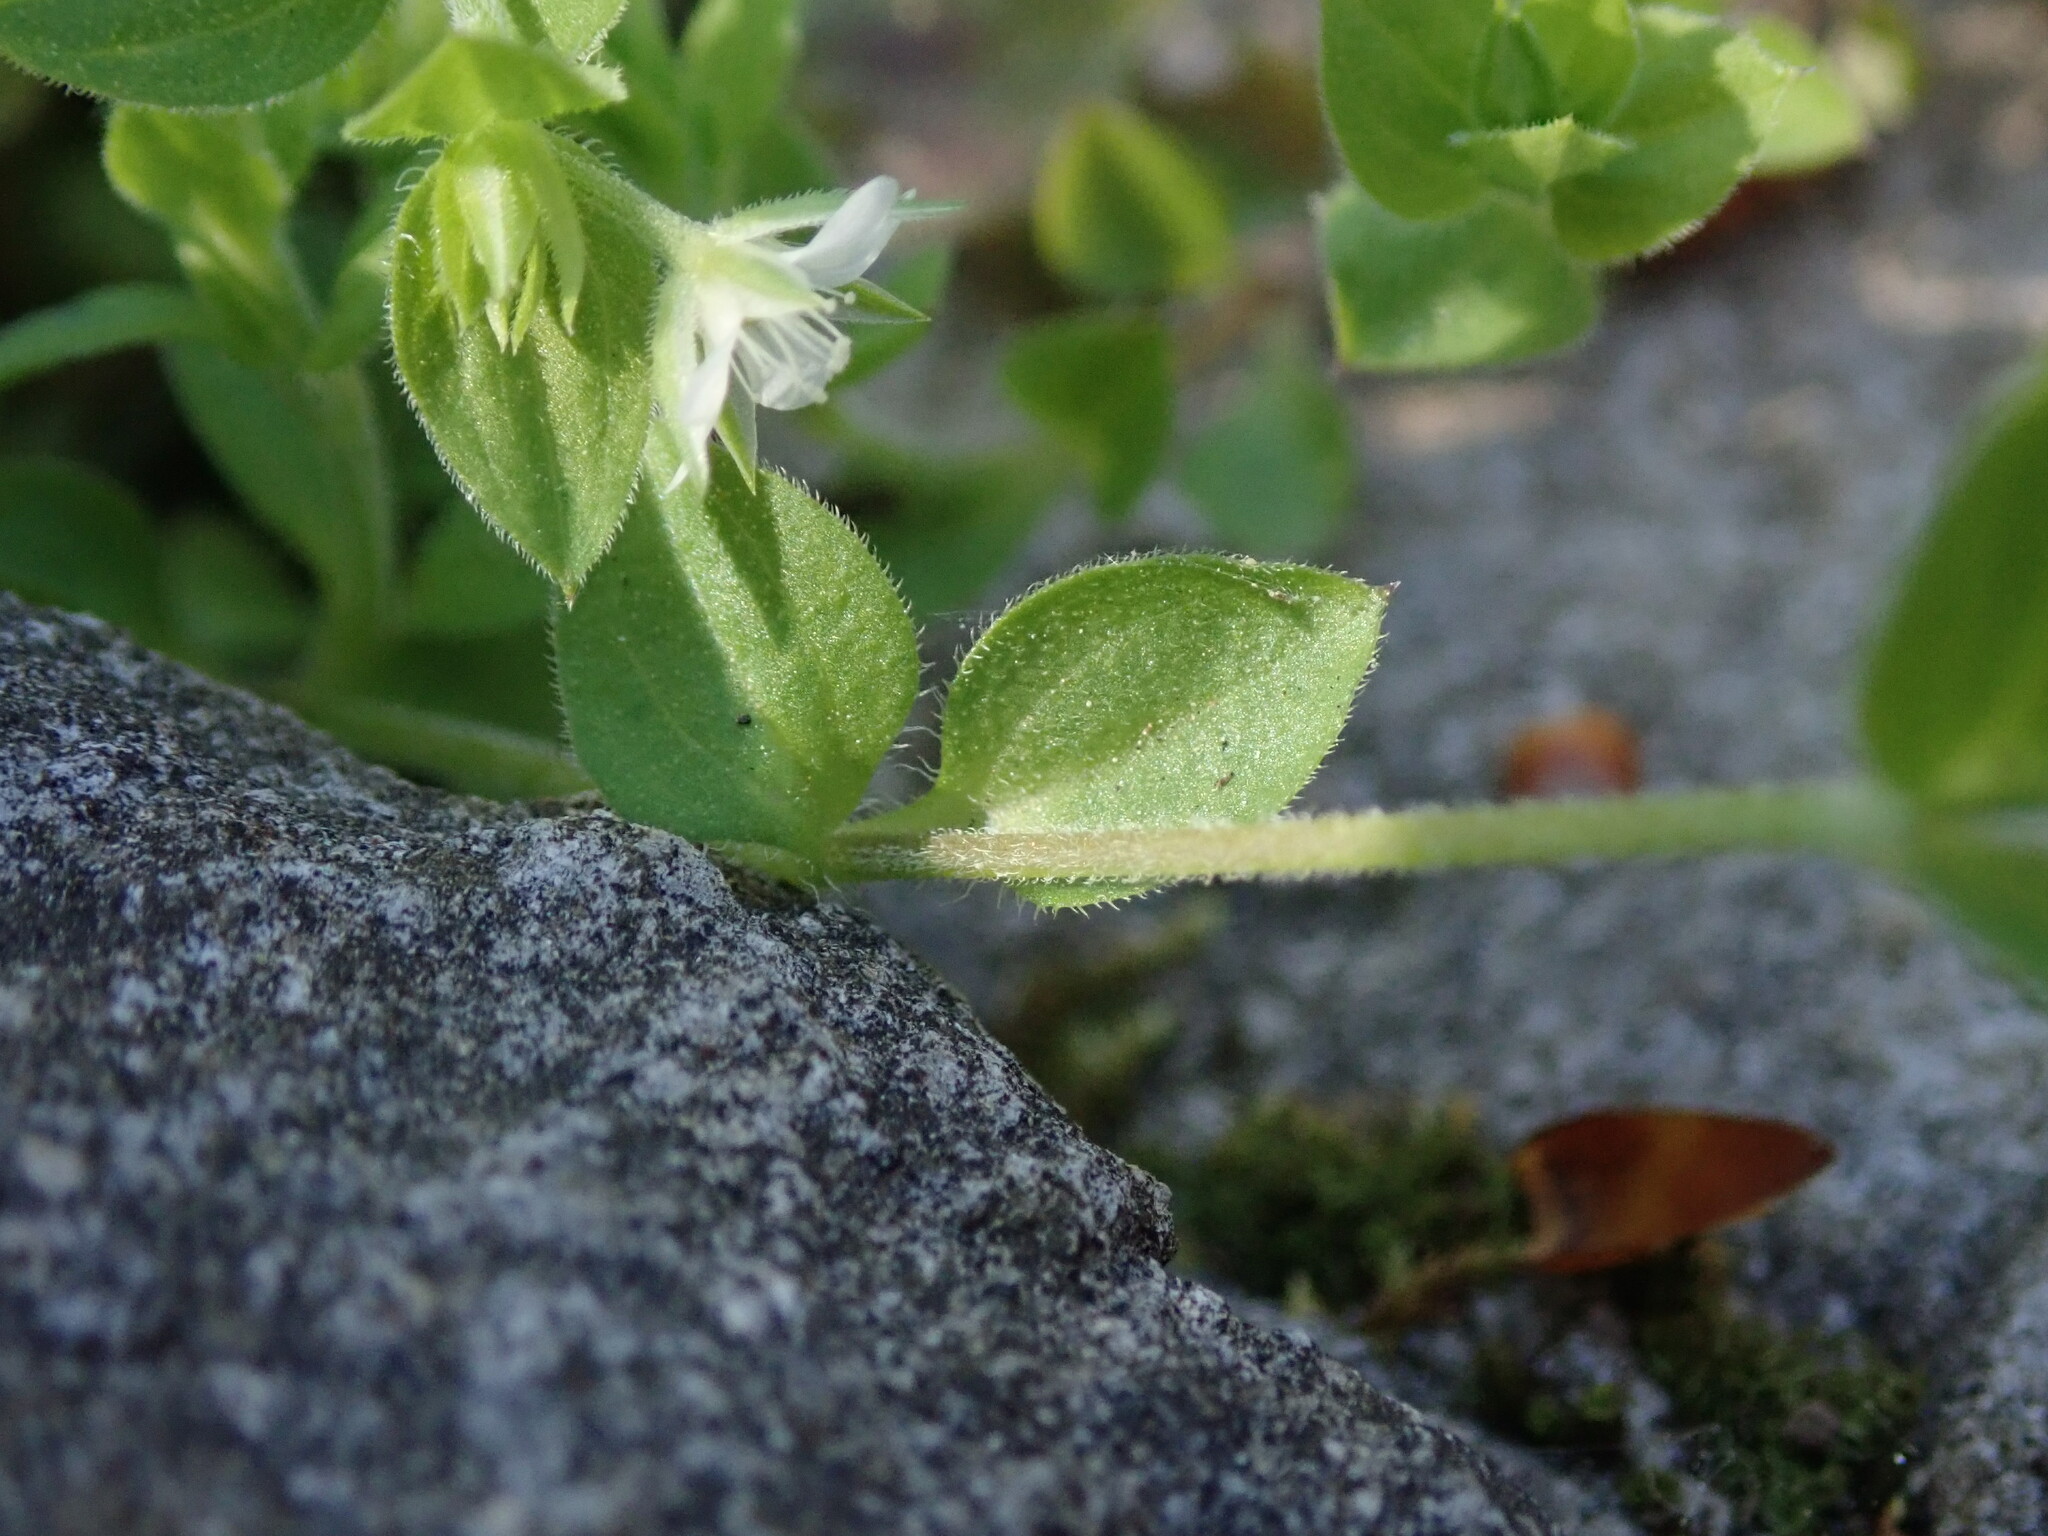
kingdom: Plantae
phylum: Tracheophyta
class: Magnoliopsida
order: Caryophyllales
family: Caryophyllaceae
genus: Moehringia
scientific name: Moehringia trinervia
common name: Three-nerved sandwort
